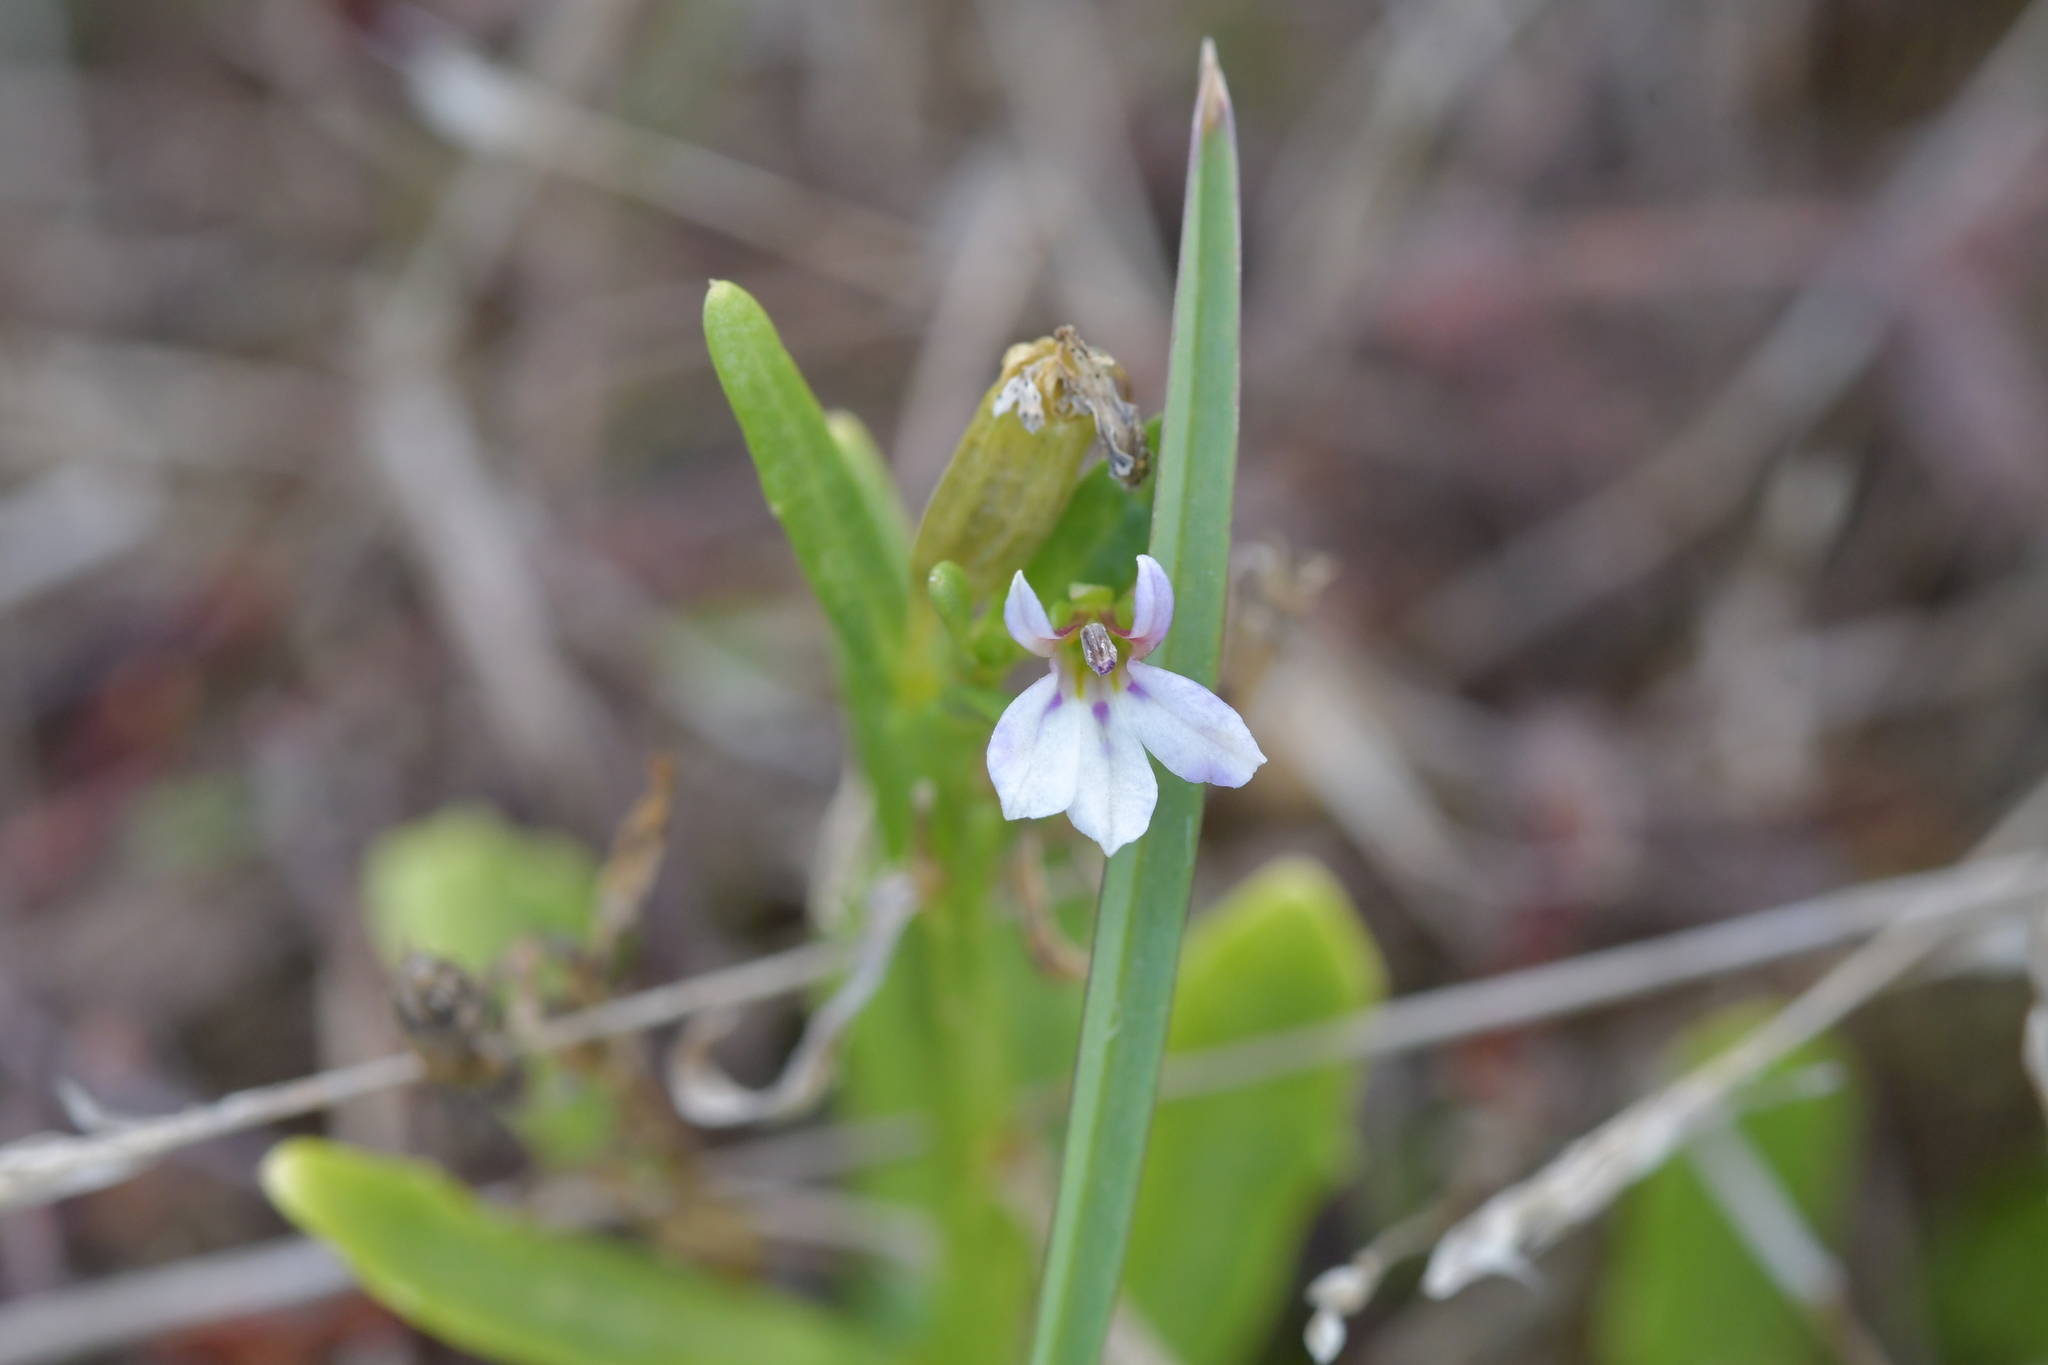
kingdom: Plantae
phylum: Tracheophyta
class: Magnoliopsida
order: Asterales
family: Campanulaceae
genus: Lobelia
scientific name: Lobelia anceps
